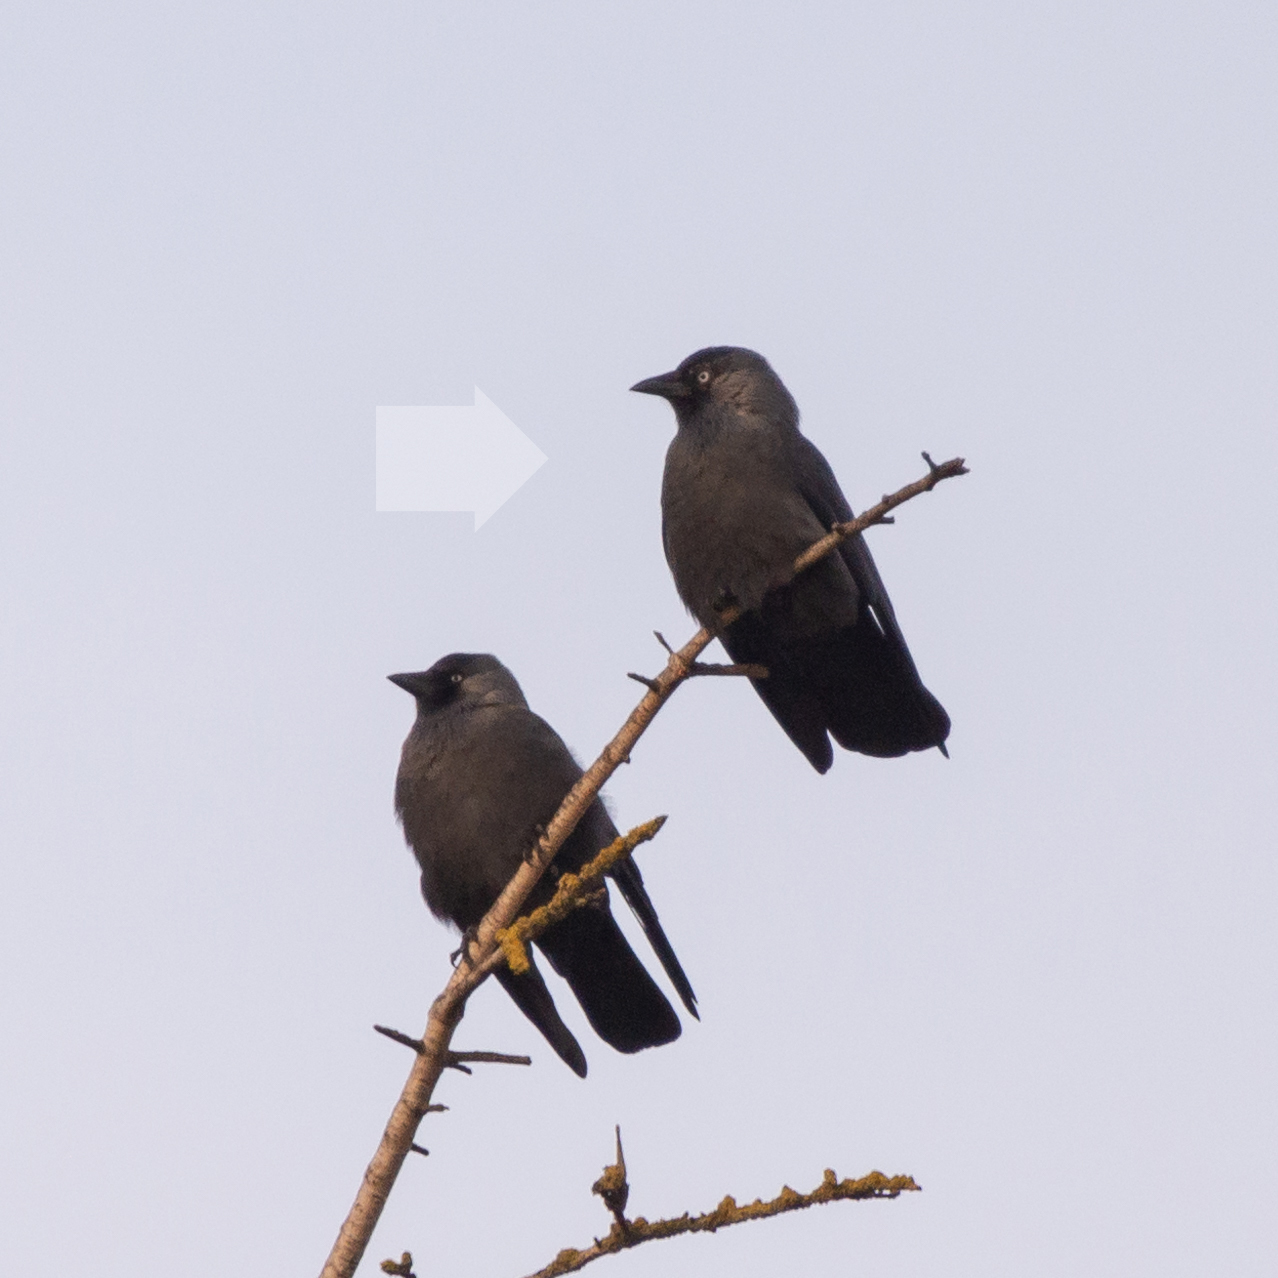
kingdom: Animalia
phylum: Chordata
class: Aves
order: Passeriformes
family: Corvidae
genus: Coloeus
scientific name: Coloeus monedula
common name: Western jackdaw
